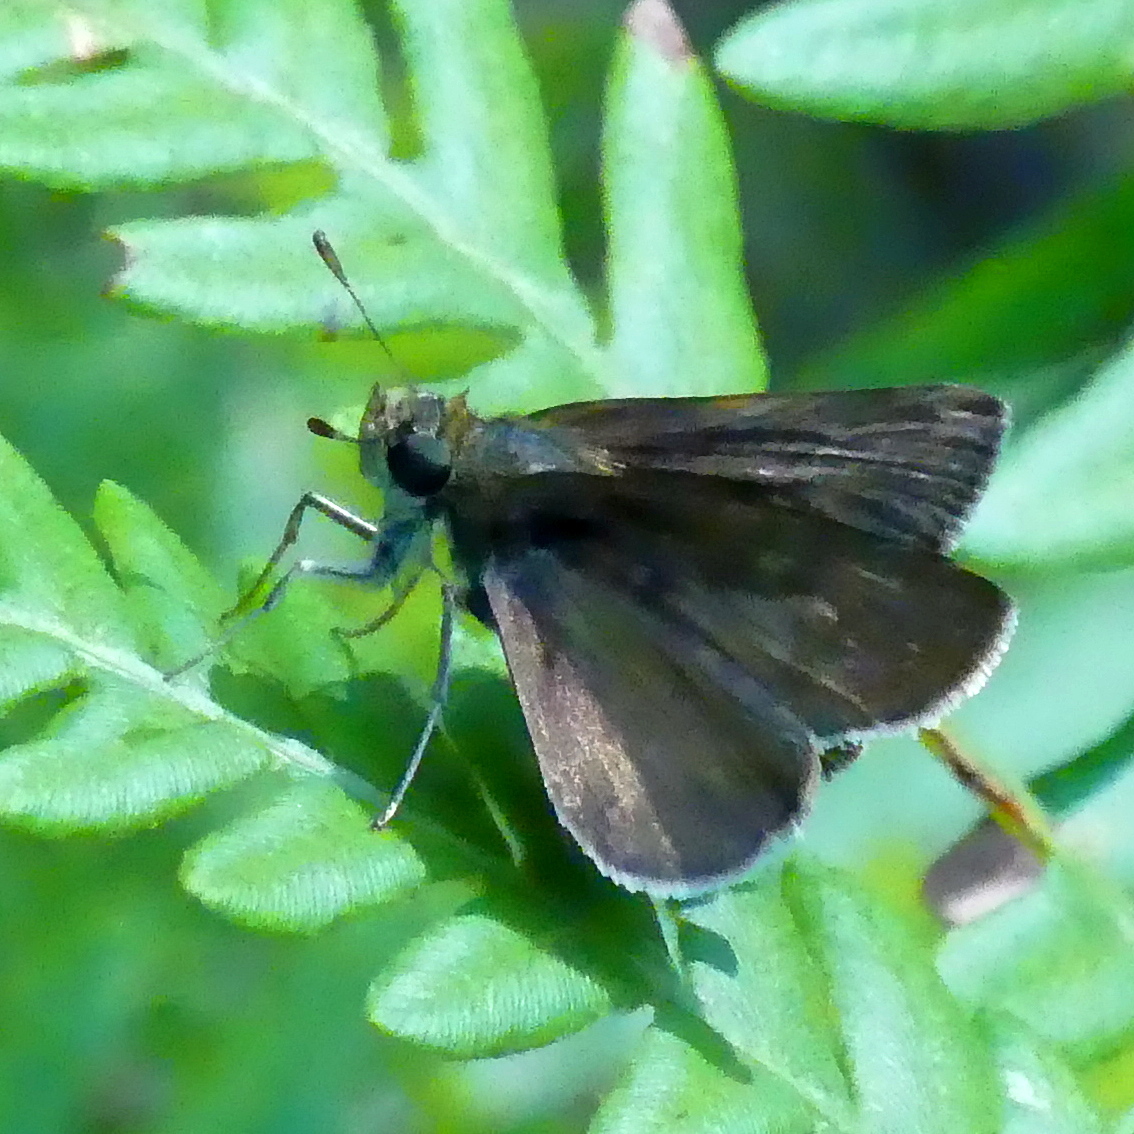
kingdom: Animalia
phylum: Arthropoda
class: Insecta
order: Lepidoptera
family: Hesperiidae
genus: Euphyes
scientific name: Euphyes vestris
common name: Dun skipper
